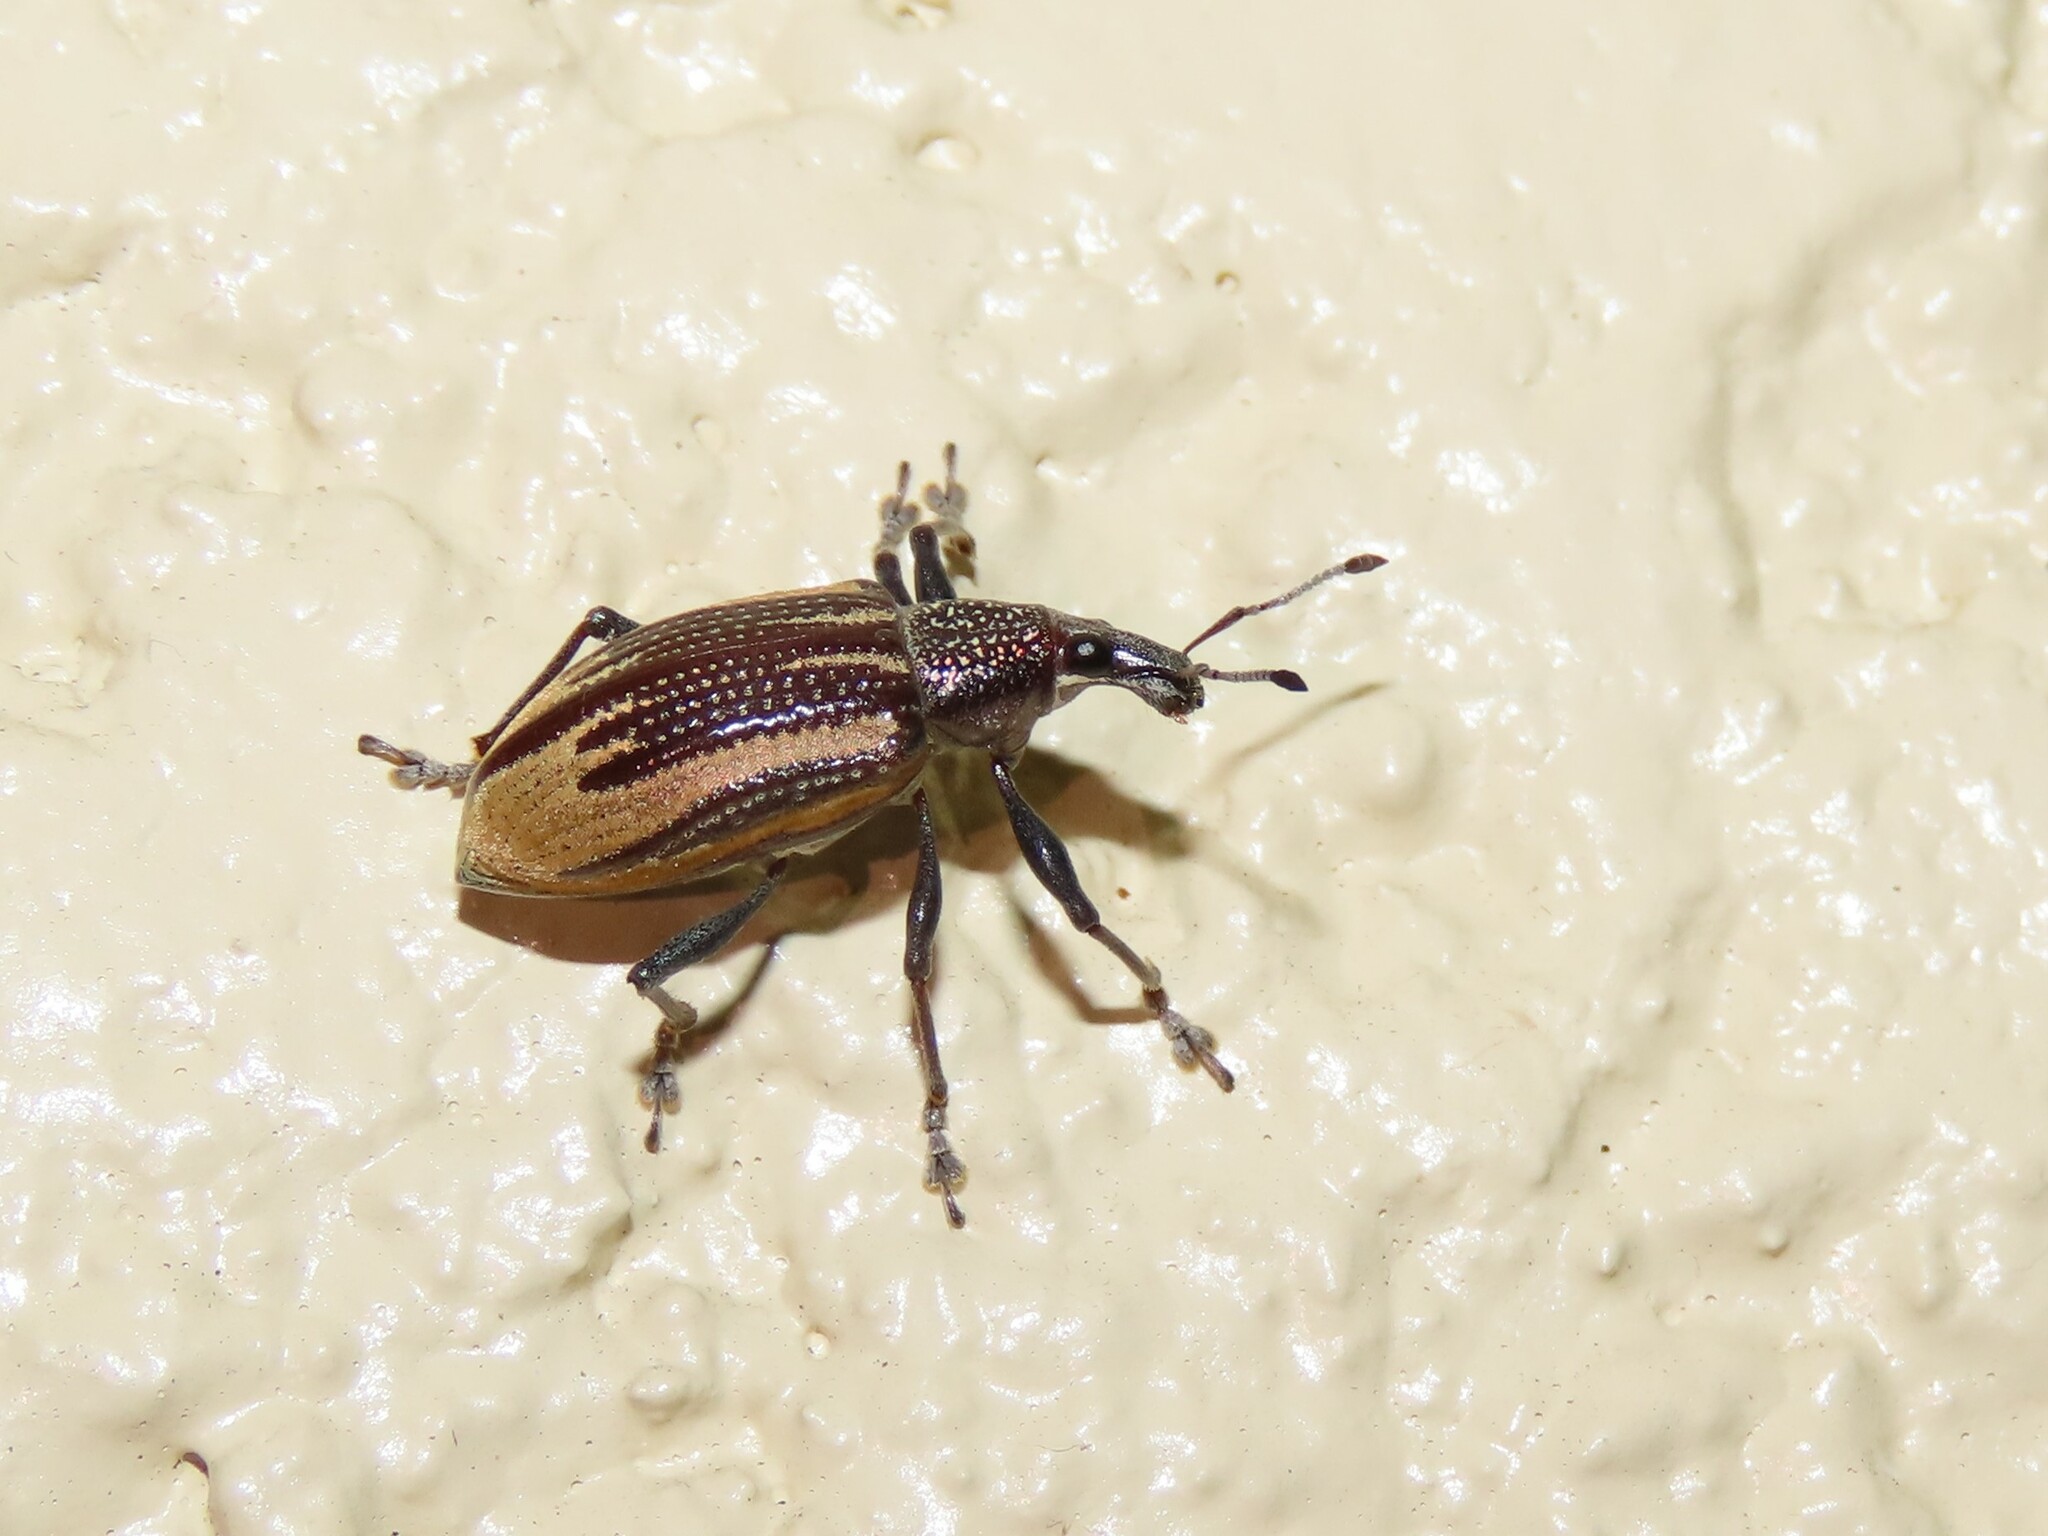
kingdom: Animalia
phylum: Arthropoda
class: Insecta
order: Coleoptera
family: Curculionidae
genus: Diaprepes
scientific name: Diaprepes abbreviatus
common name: Root weevil
